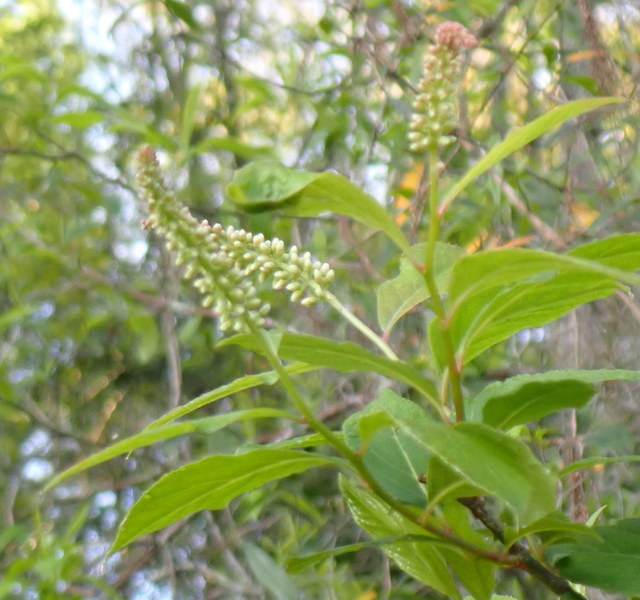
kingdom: Plantae
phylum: Tracheophyta
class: Magnoliopsida
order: Saxifragales
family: Iteaceae
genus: Itea
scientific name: Itea virginica
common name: Sweetspire
